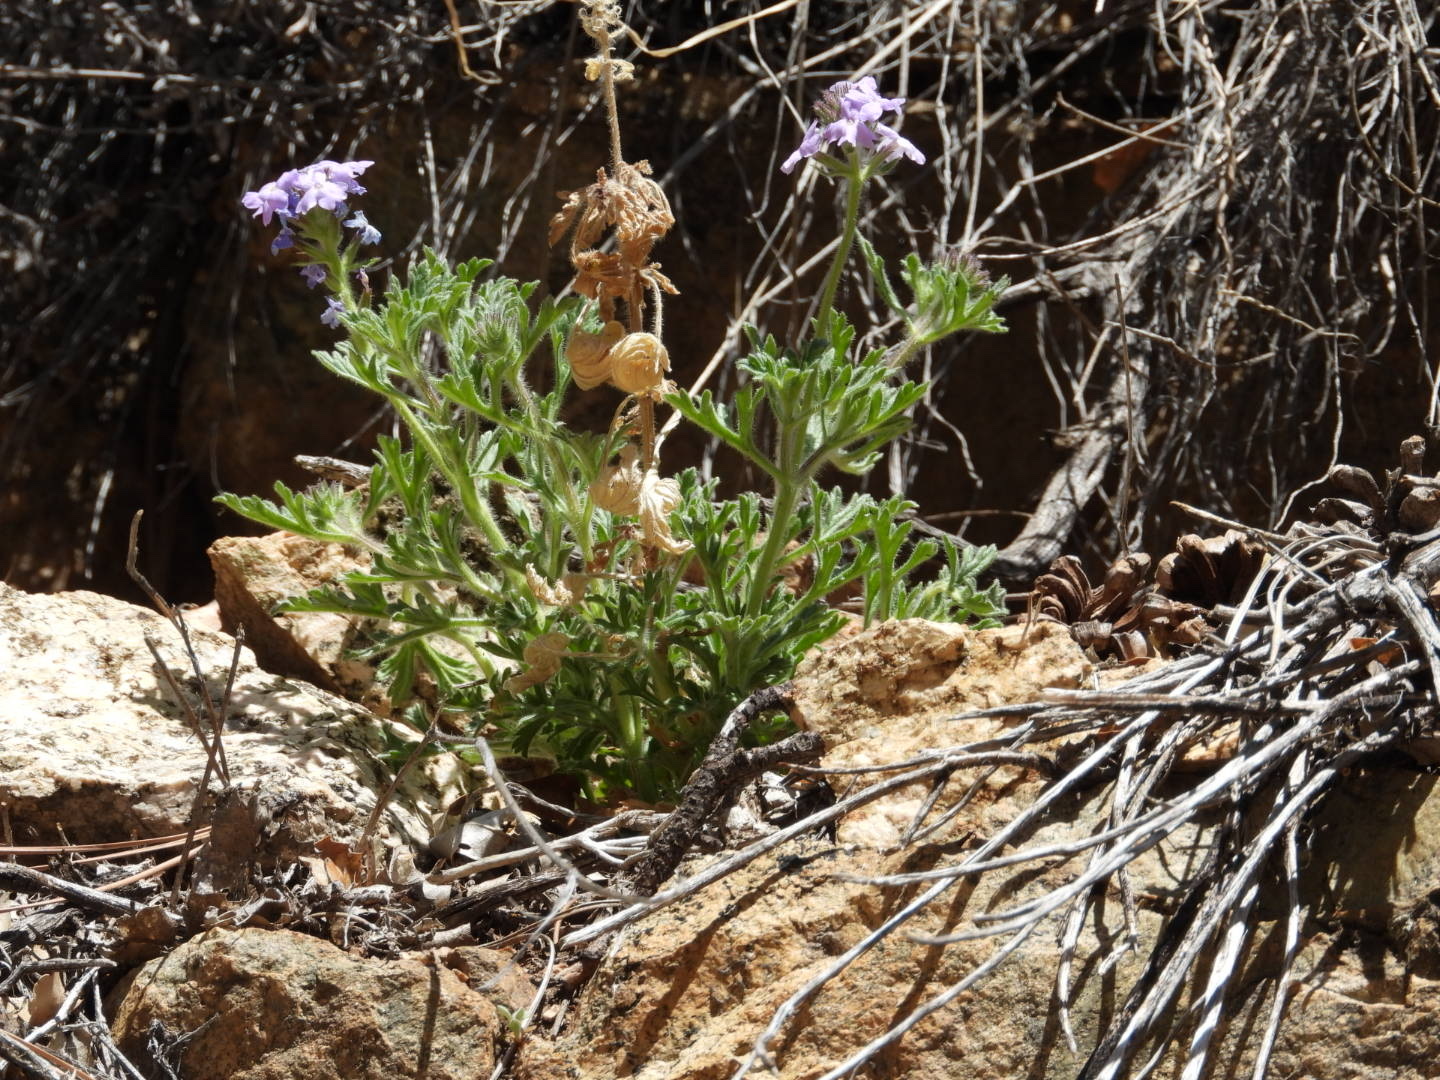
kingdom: Plantae
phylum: Tracheophyta
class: Magnoliopsida
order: Lamiales
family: Verbenaceae
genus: Verbena
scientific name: Verbena gooddingii
